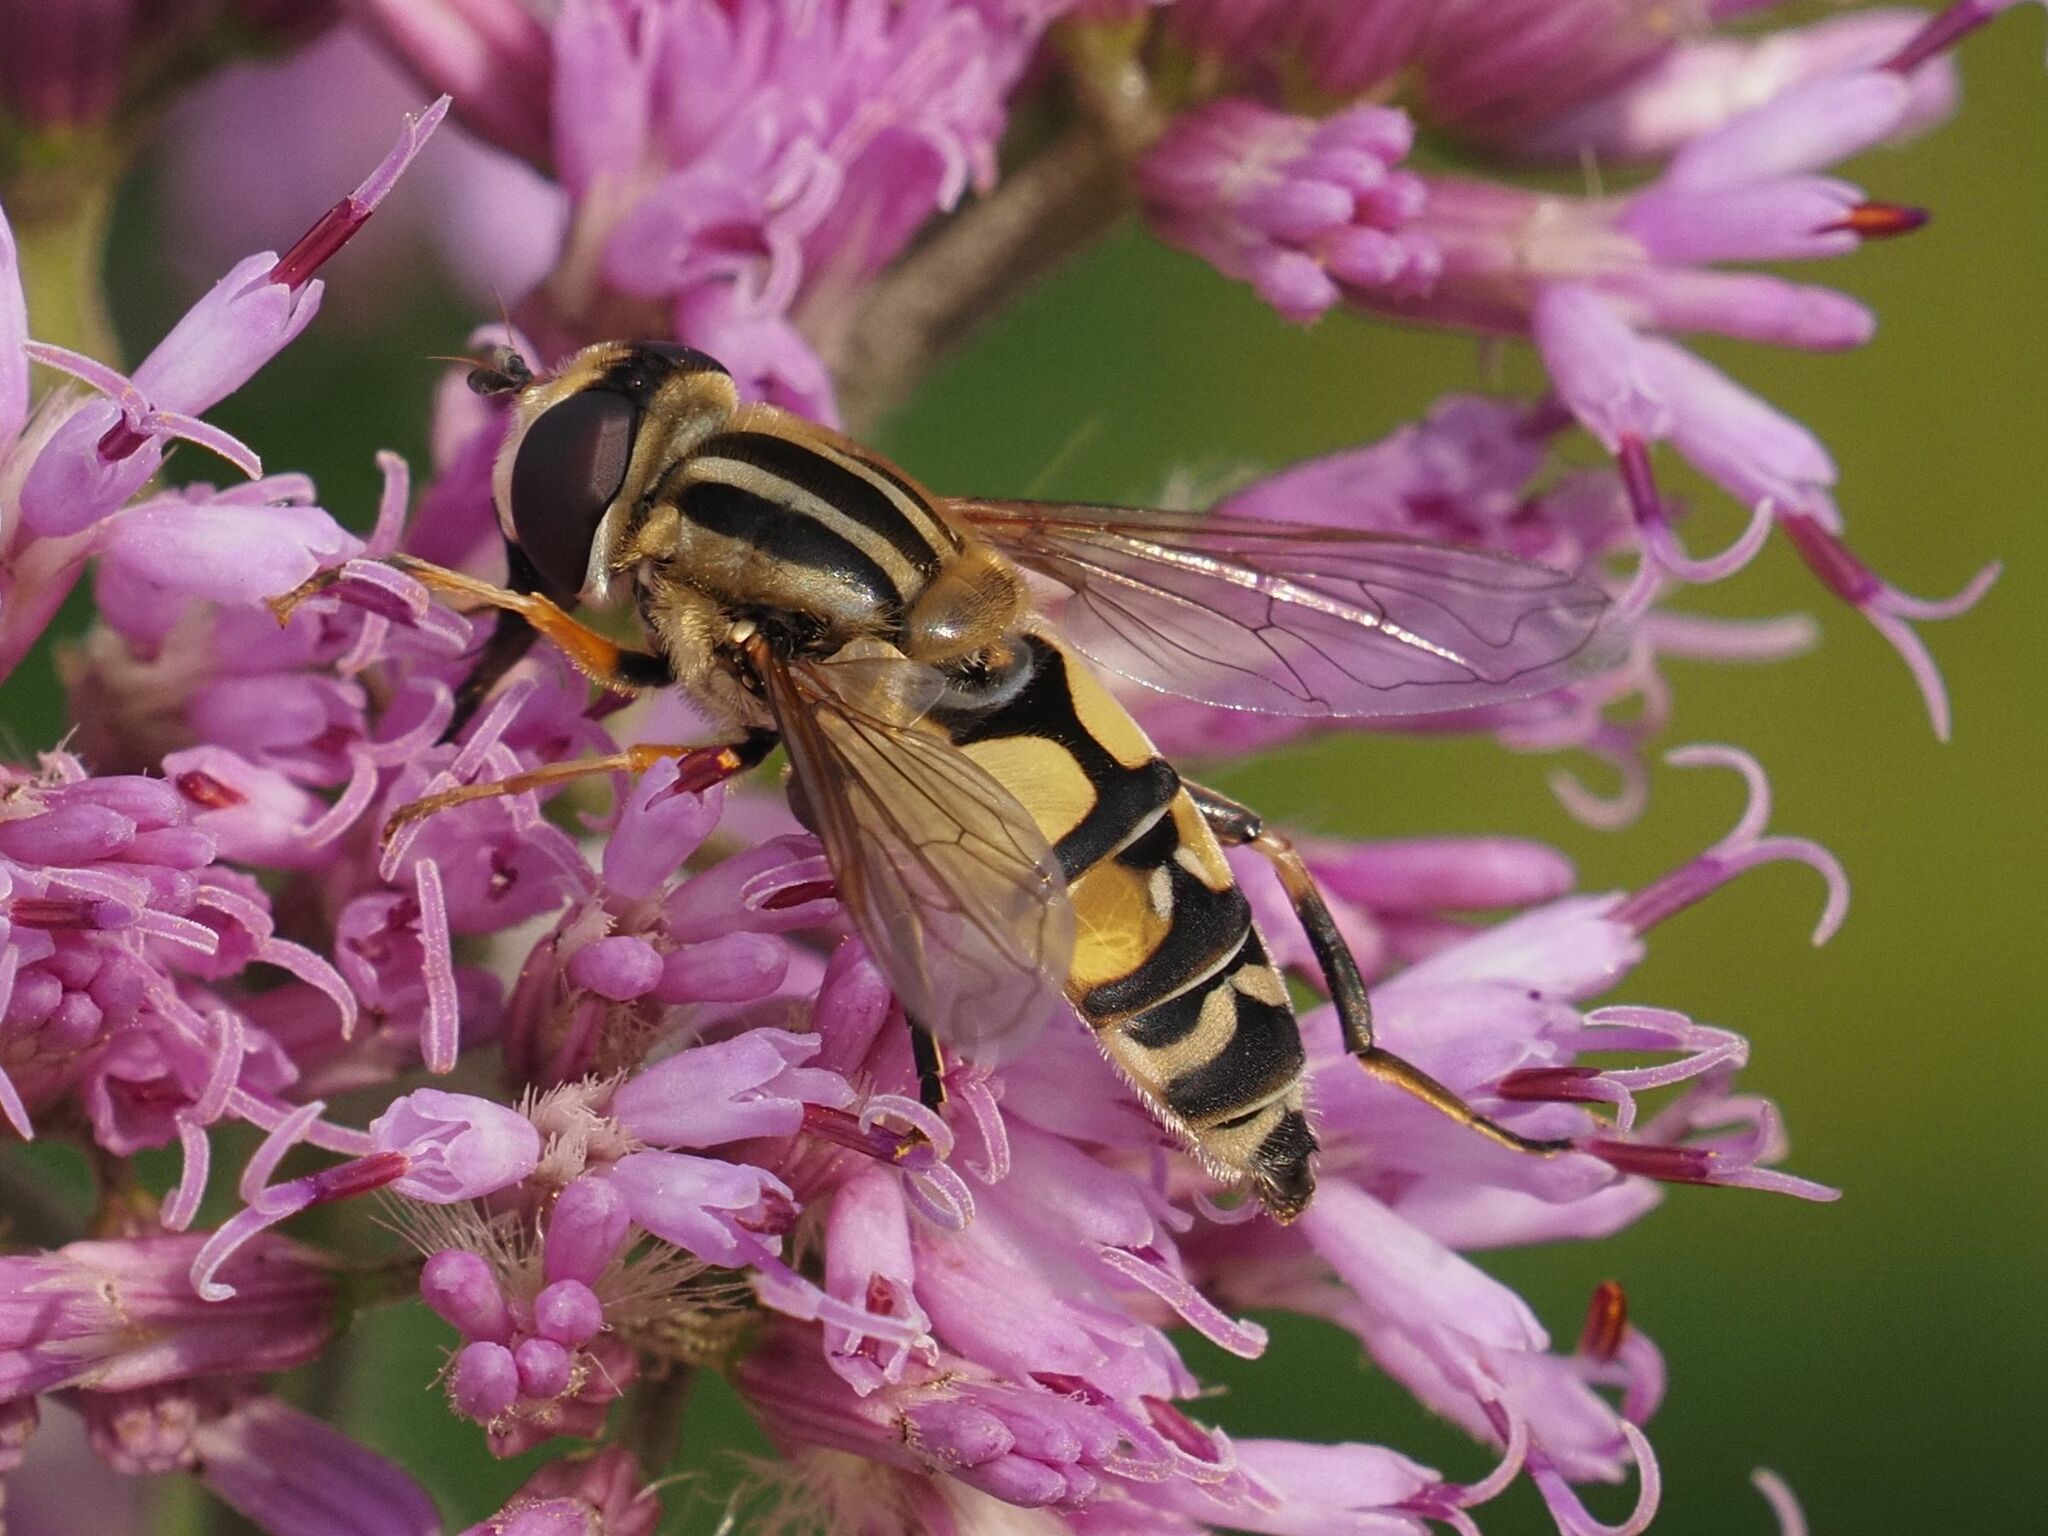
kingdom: Animalia
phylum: Arthropoda
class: Insecta
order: Diptera
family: Syrphidae
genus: Helophilus
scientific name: Helophilus trivittatus
